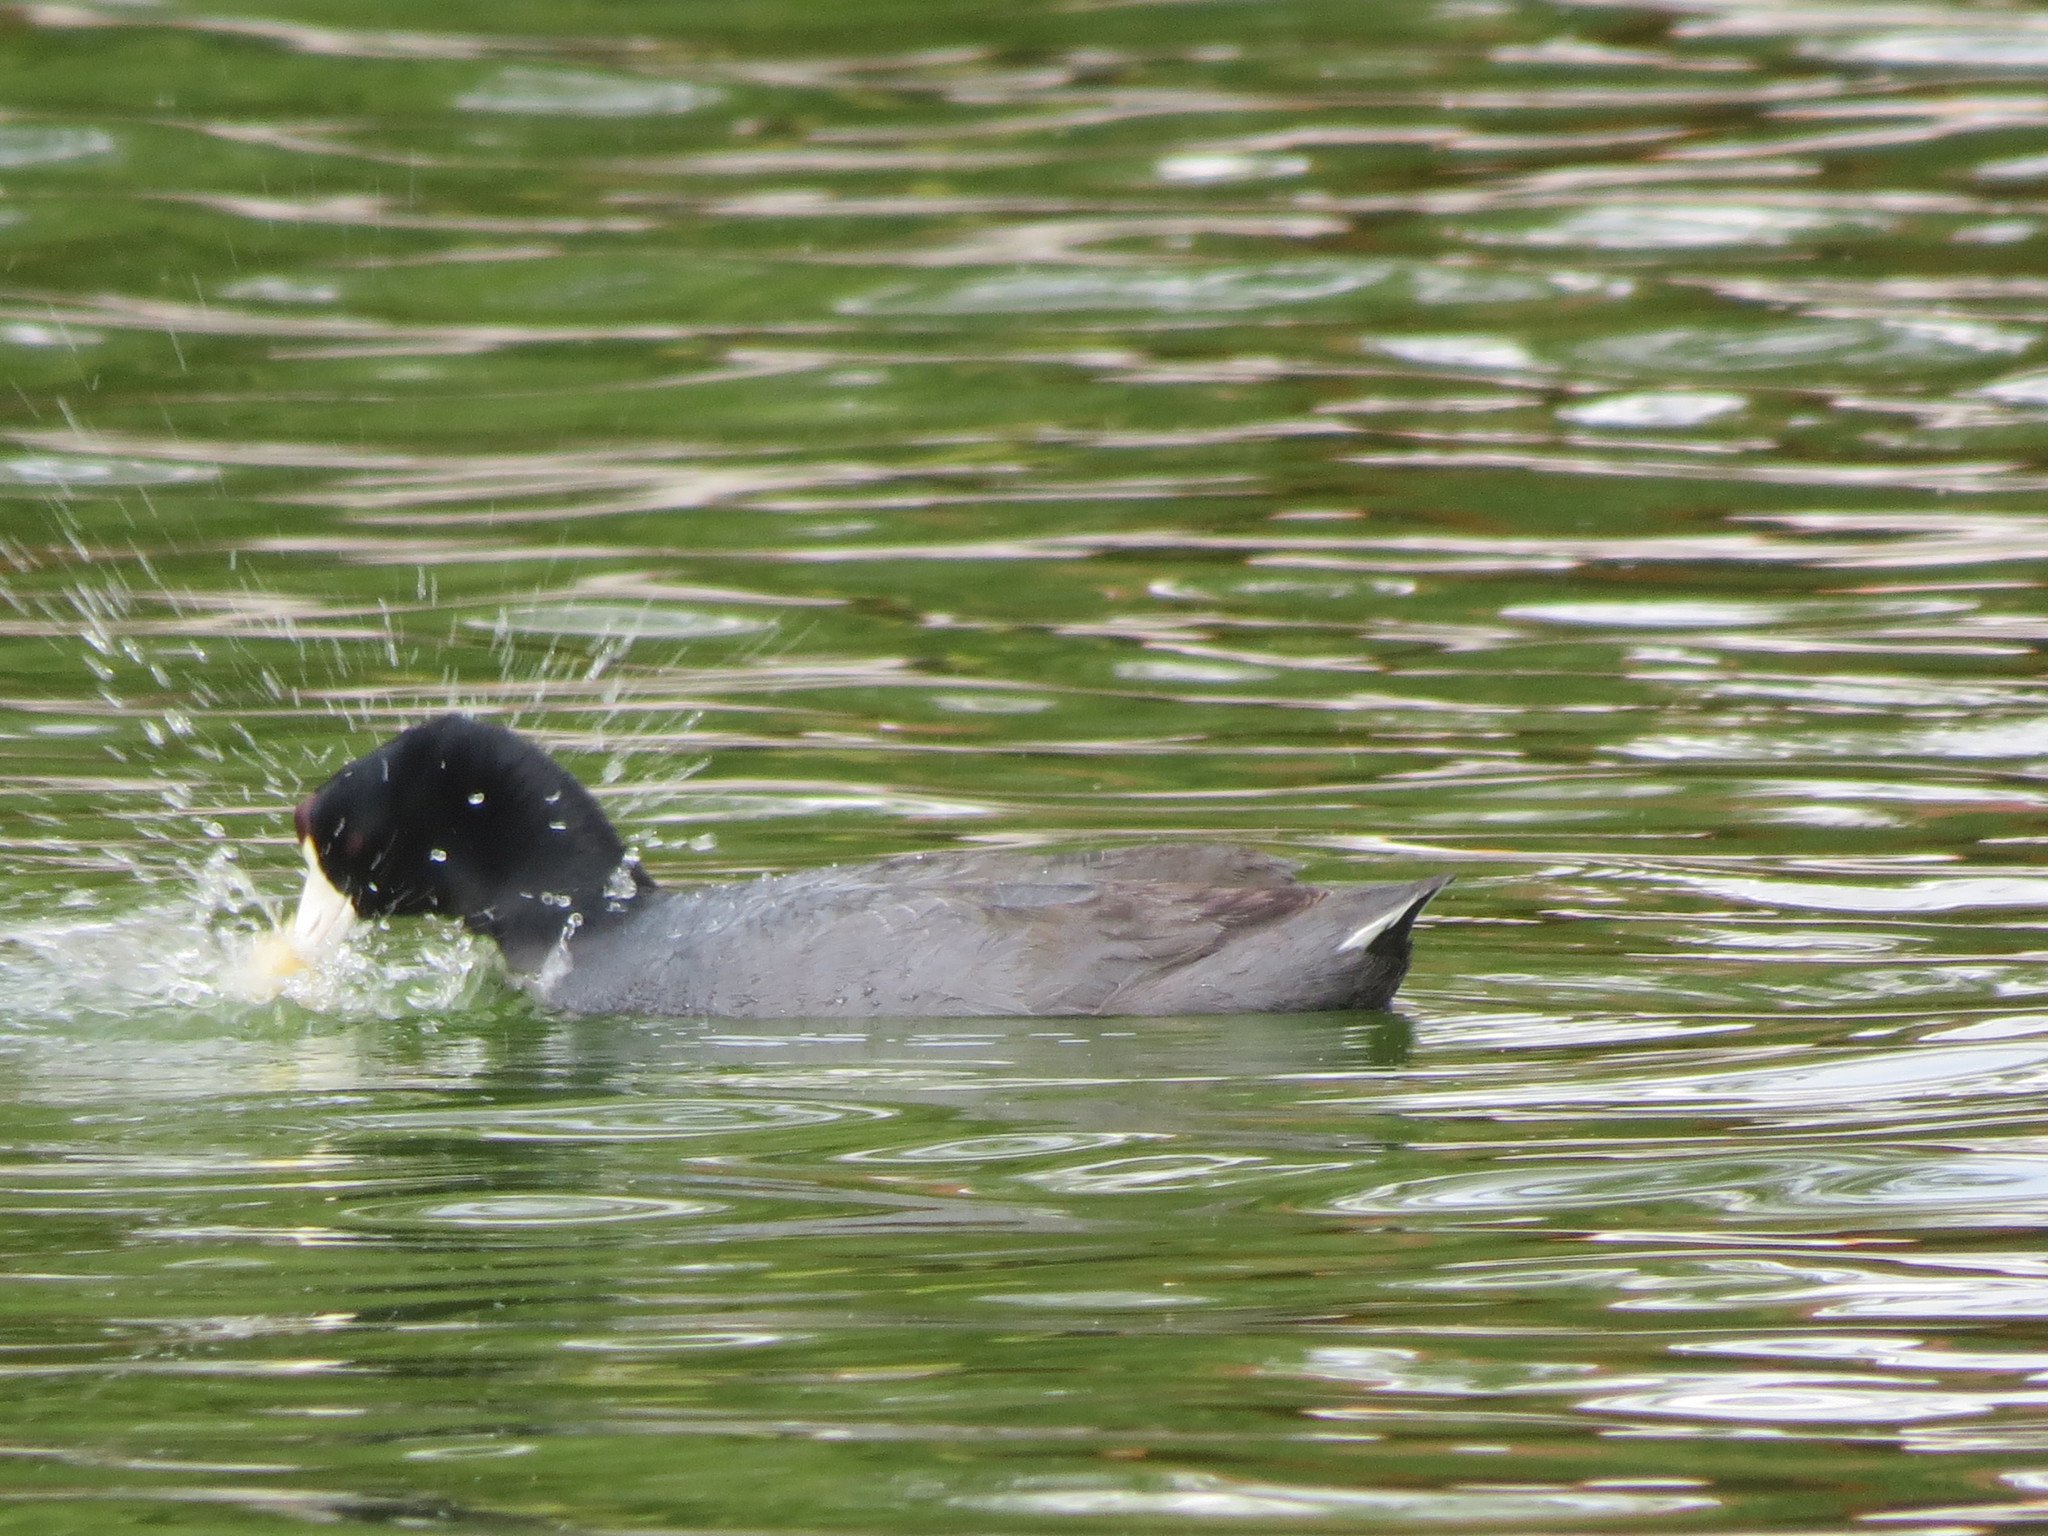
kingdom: Animalia
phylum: Chordata
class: Aves
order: Gruiformes
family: Rallidae
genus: Fulica
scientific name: Fulica americana
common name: American coot
